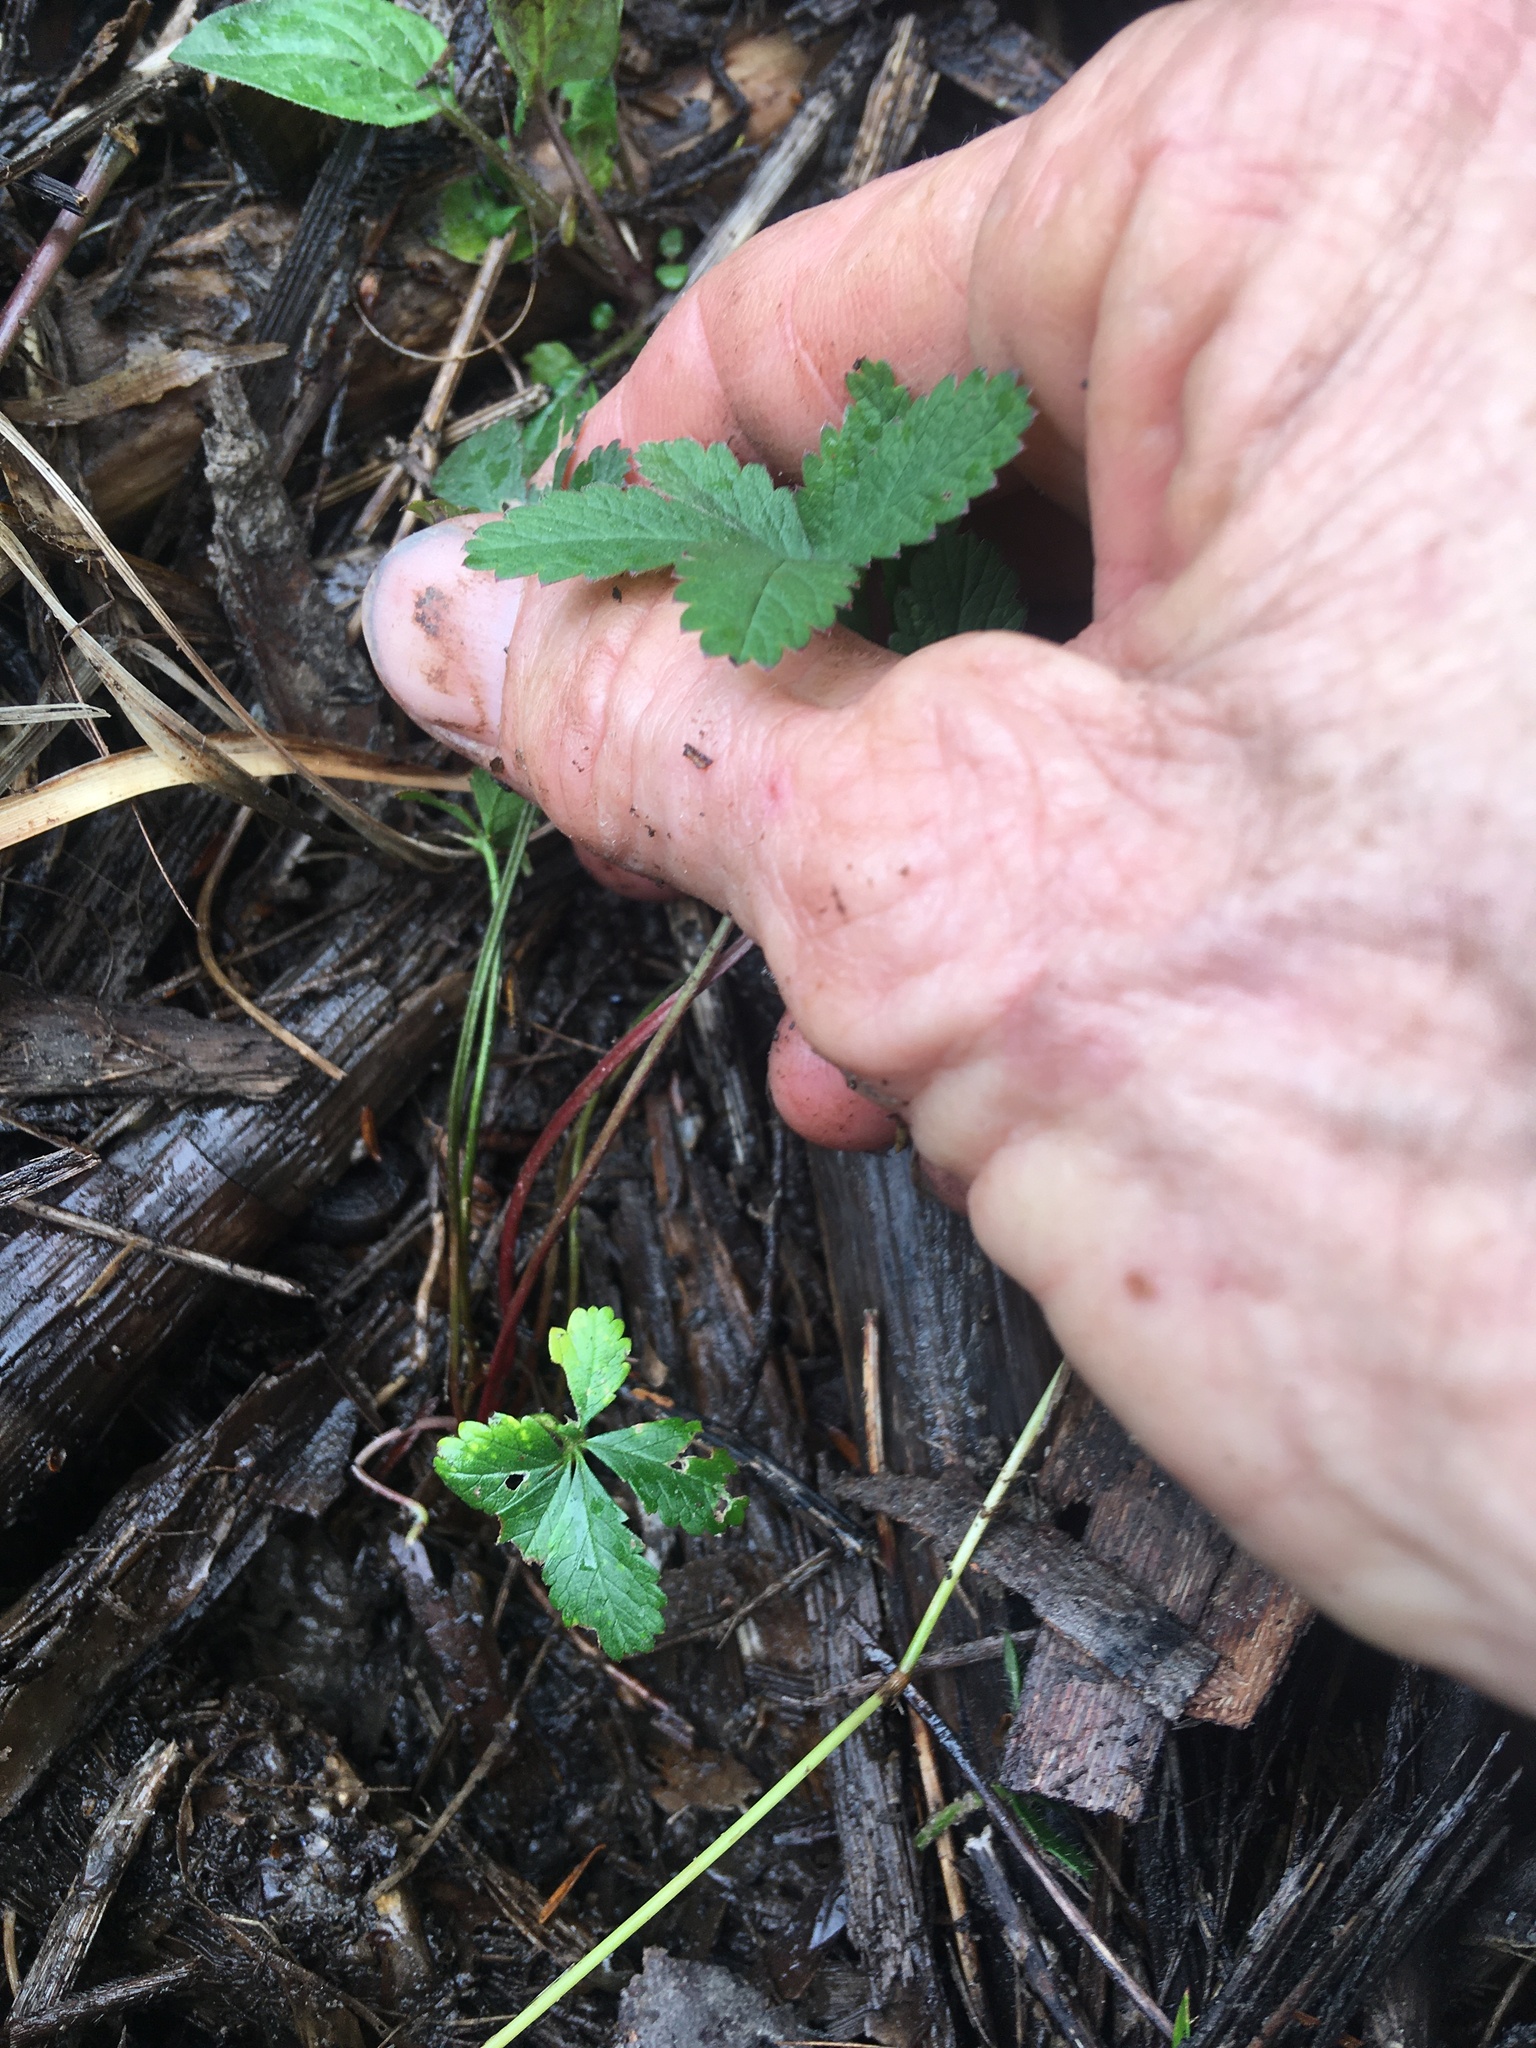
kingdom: Plantae
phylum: Tracheophyta
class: Magnoliopsida
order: Rosales
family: Rosaceae
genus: Potentilla
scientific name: Potentilla reptans
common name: Creeping cinquefoil
